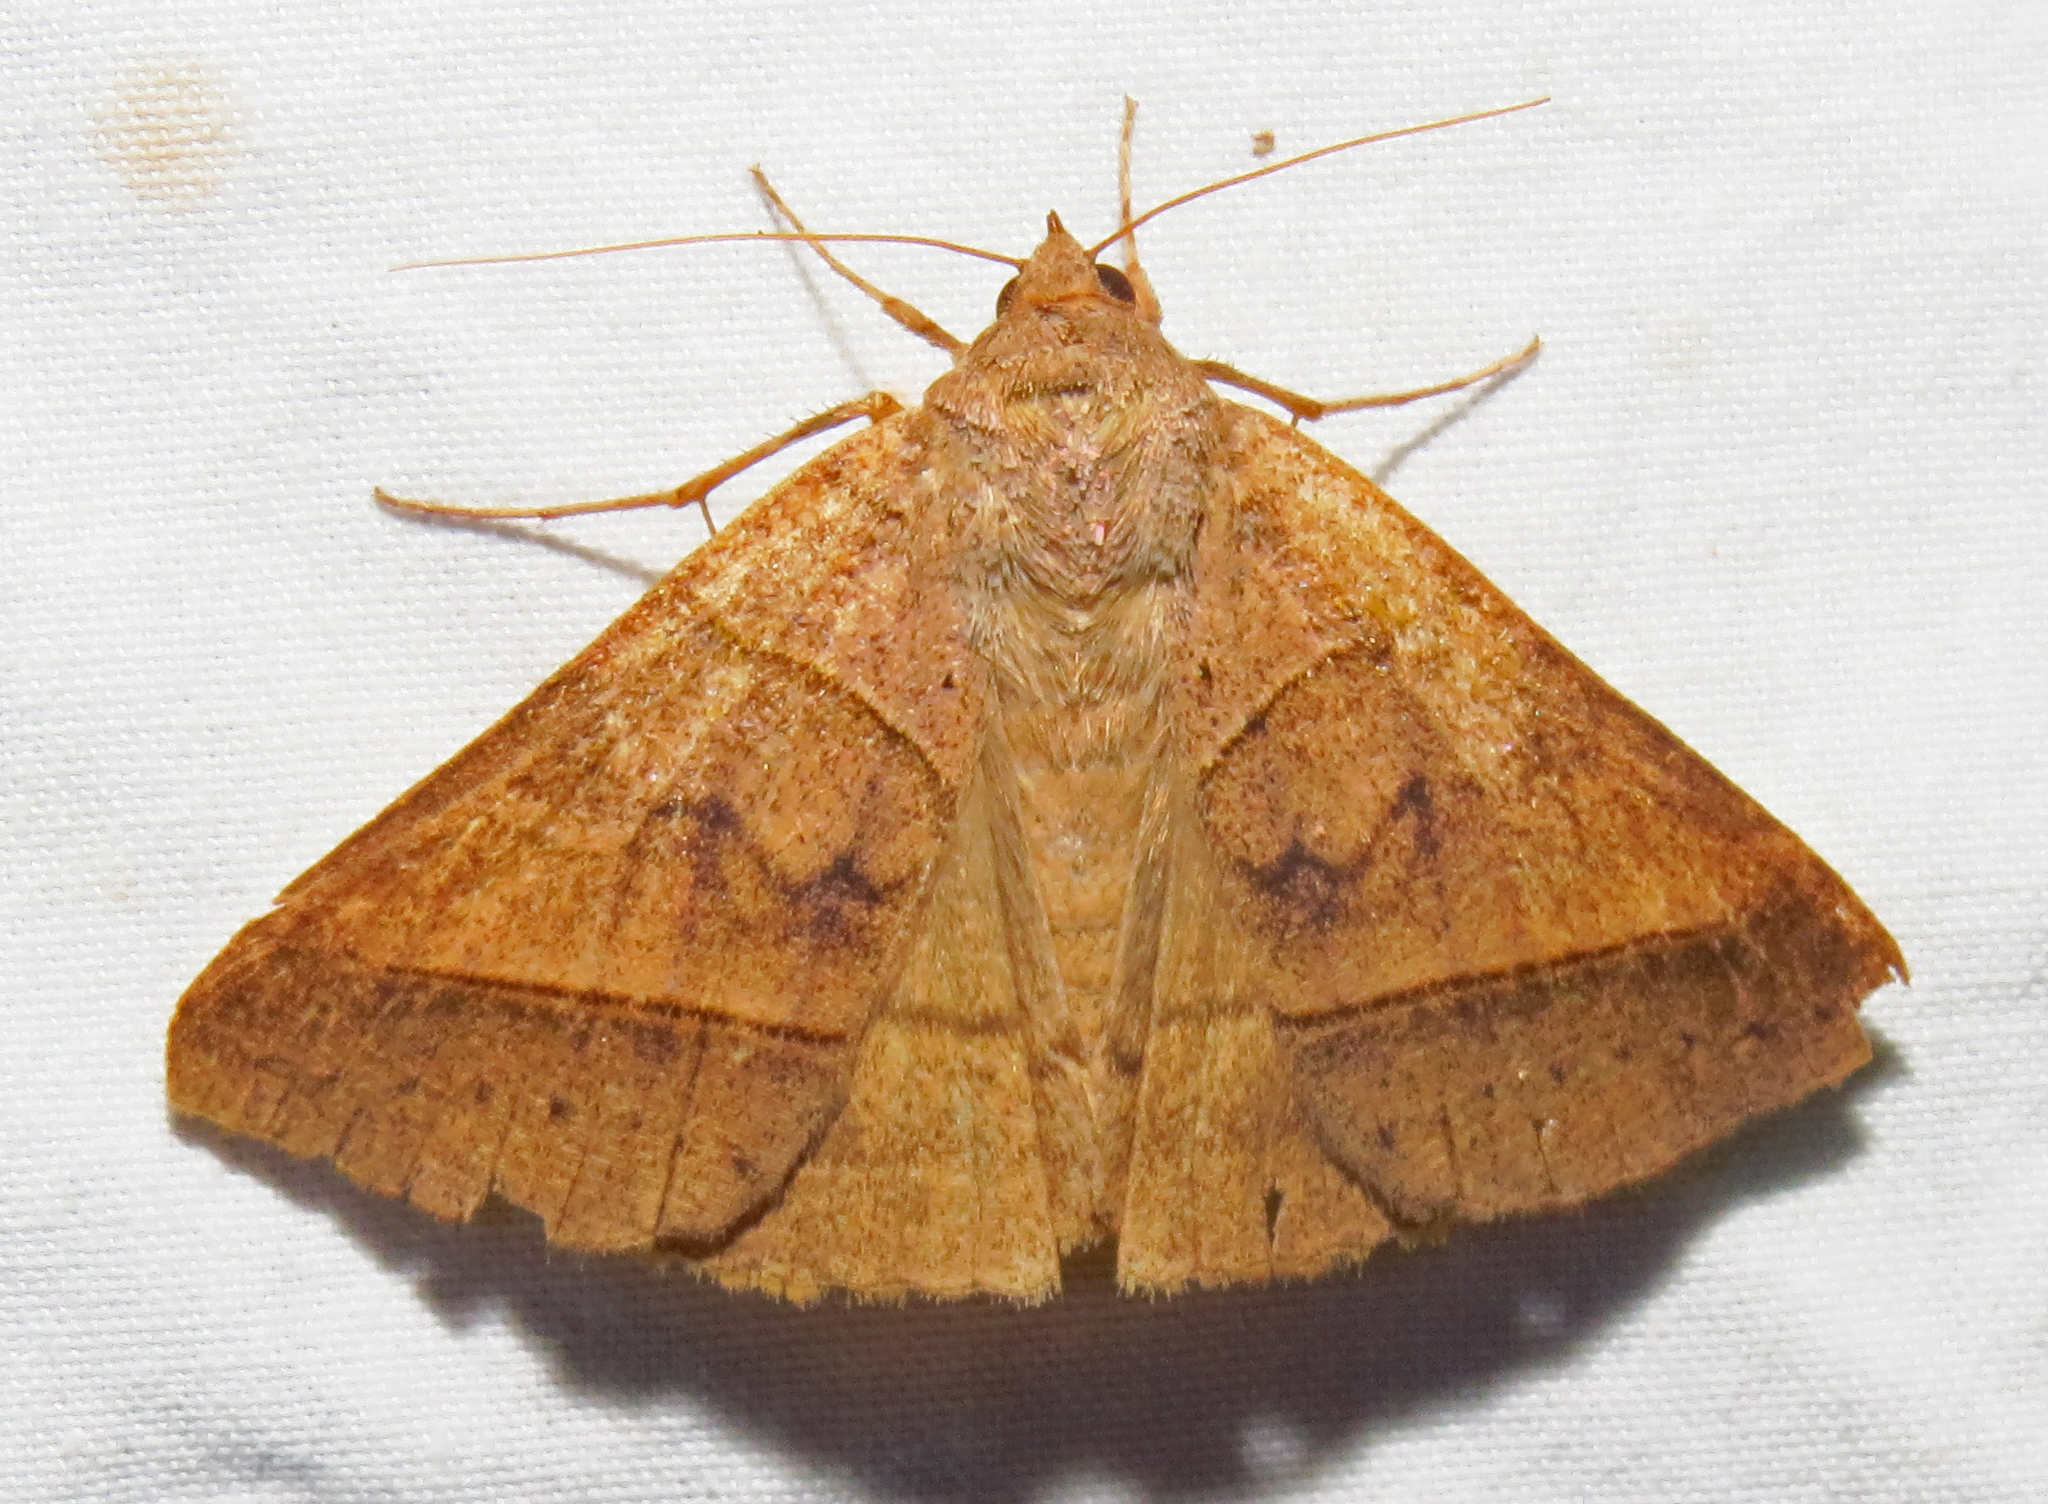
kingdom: Animalia
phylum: Arthropoda
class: Insecta
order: Lepidoptera
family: Erebidae
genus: Mocis
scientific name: Mocis texana
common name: Texas mocis moth
